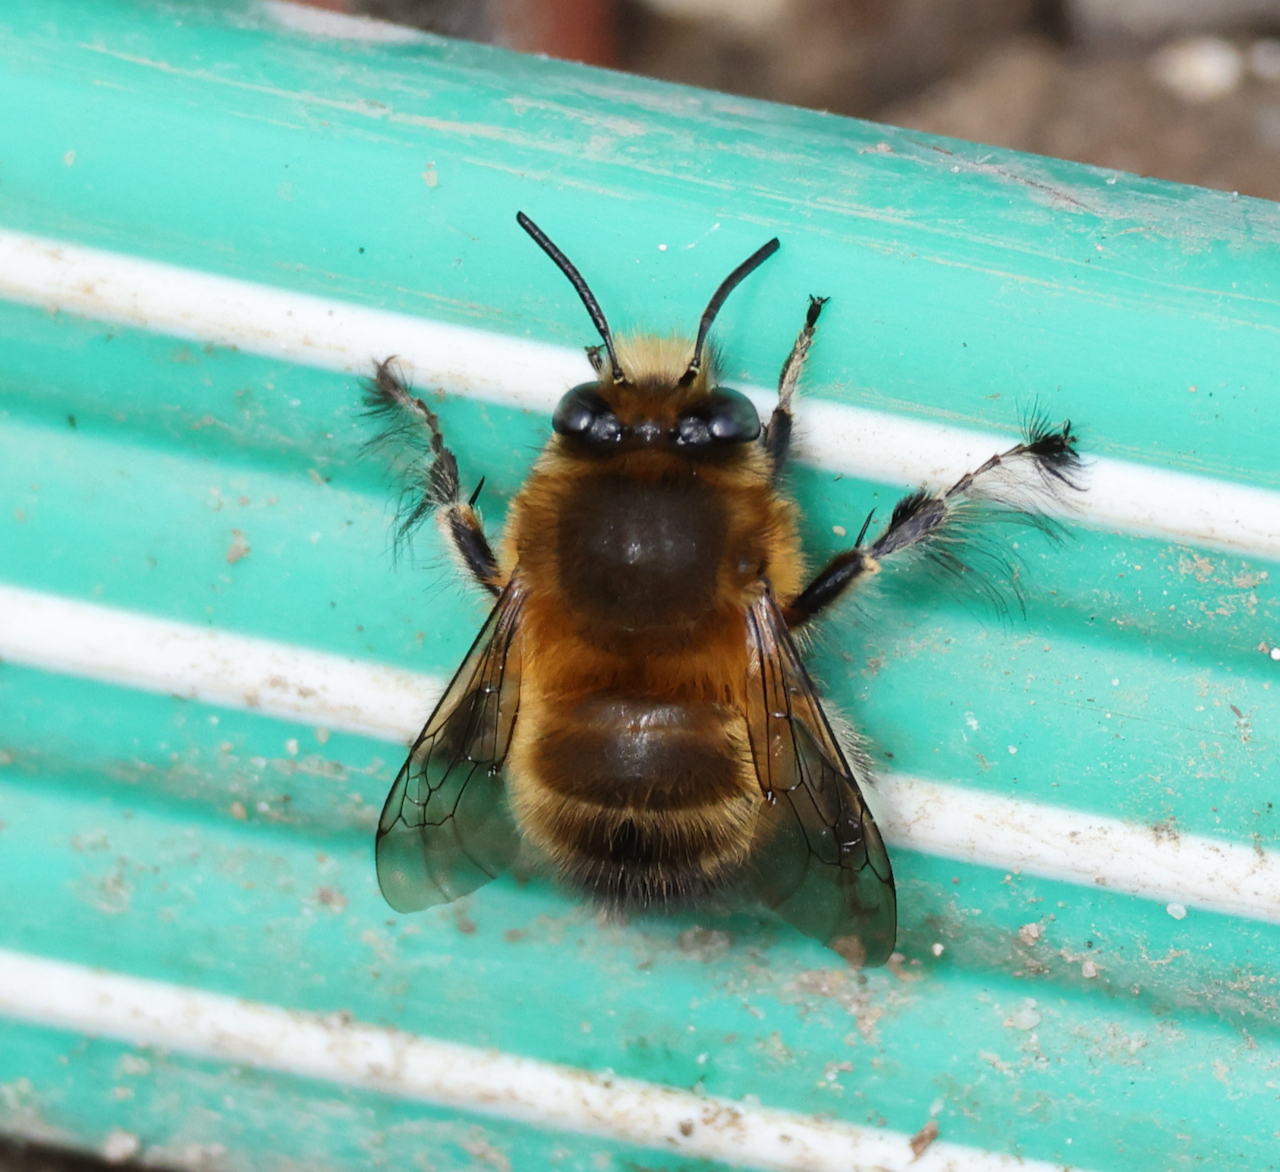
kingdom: Animalia
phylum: Arthropoda
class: Insecta
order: Hymenoptera
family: Apidae
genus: Anthophora
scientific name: Anthophora plumipes
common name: Hairy-footed flower bee
